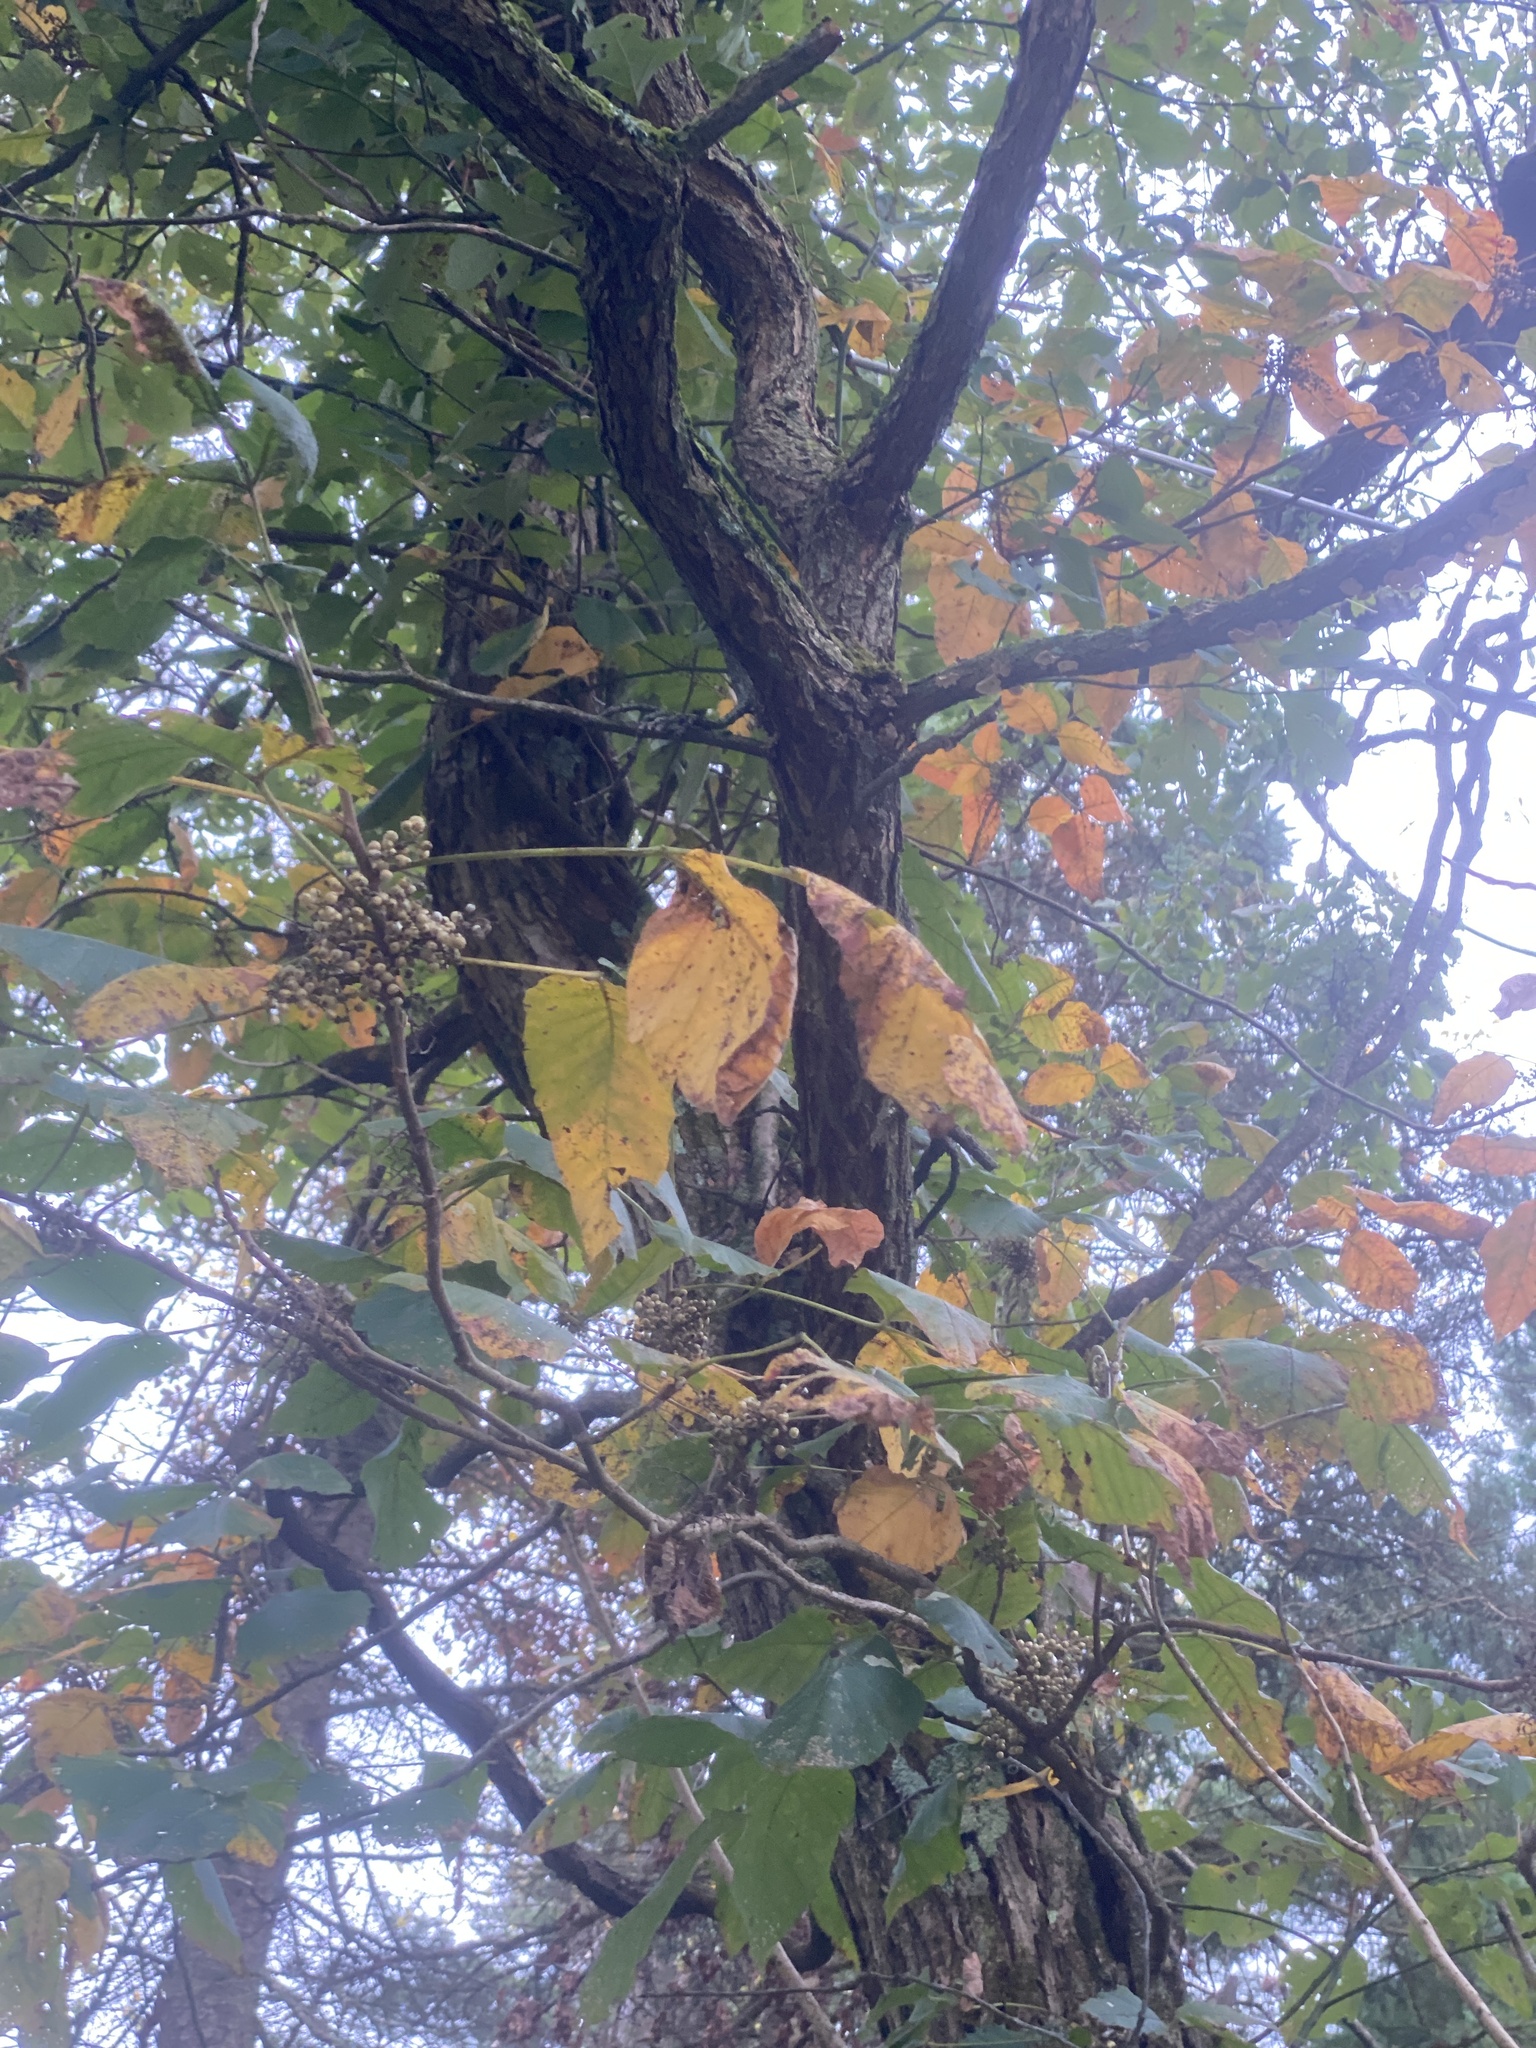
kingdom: Plantae
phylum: Tracheophyta
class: Magnoliopsida
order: Sapindales
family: Anacardiaceae
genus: Toxicodendron
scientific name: Toxicodendron radicans
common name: Poison ivy
